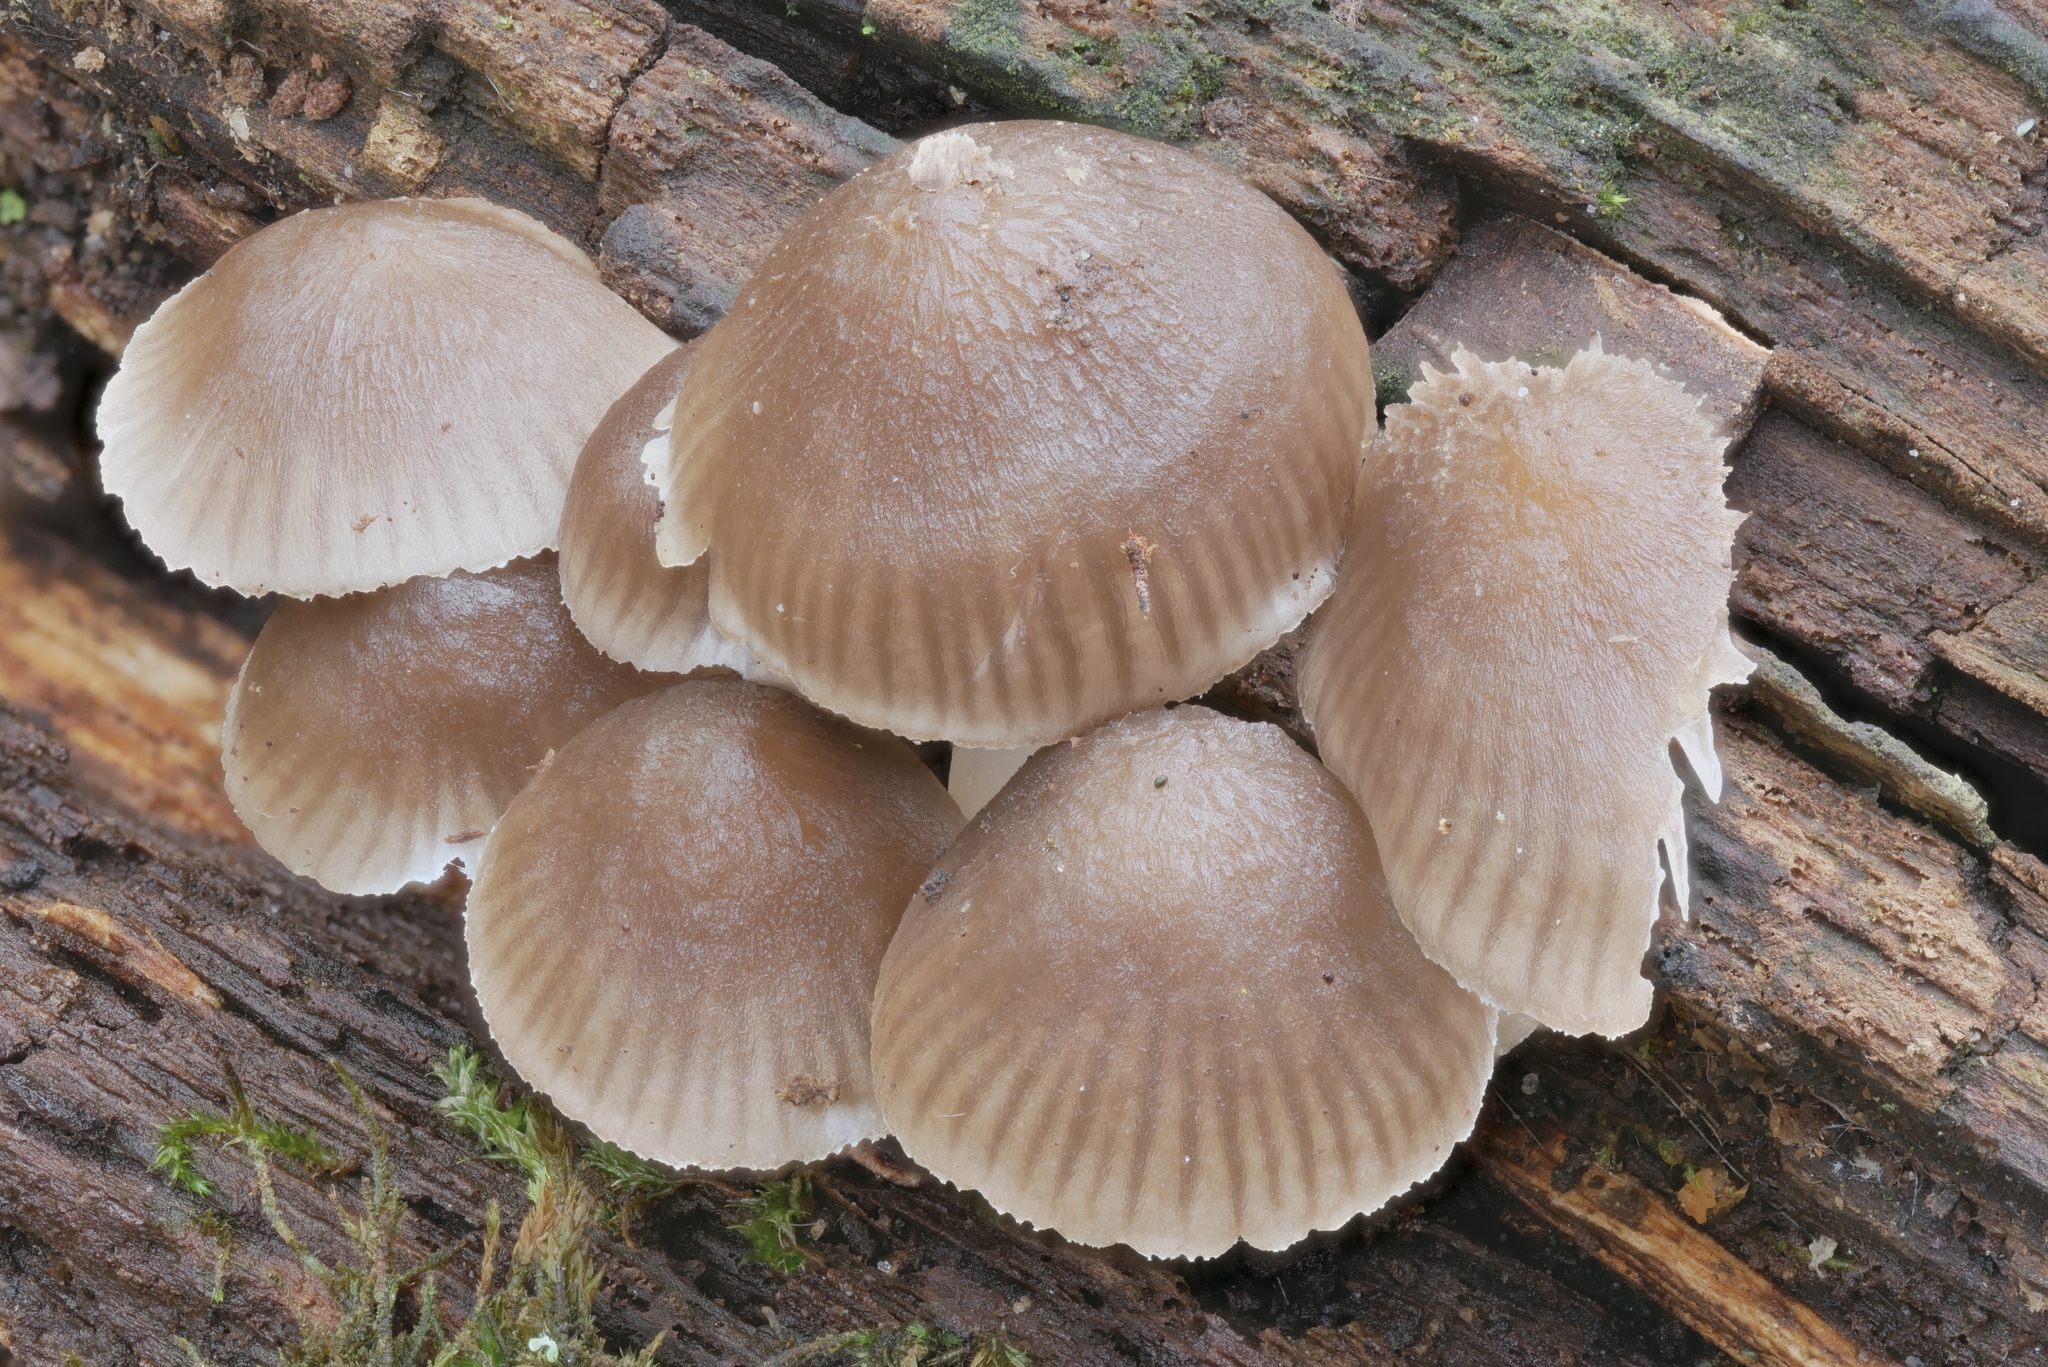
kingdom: Fungi
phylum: Basidiomycota
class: Agaricomycetes
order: Agaricales
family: Mycenaceae
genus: Mycena
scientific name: Mycena inclinata
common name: Clustered bonnet
